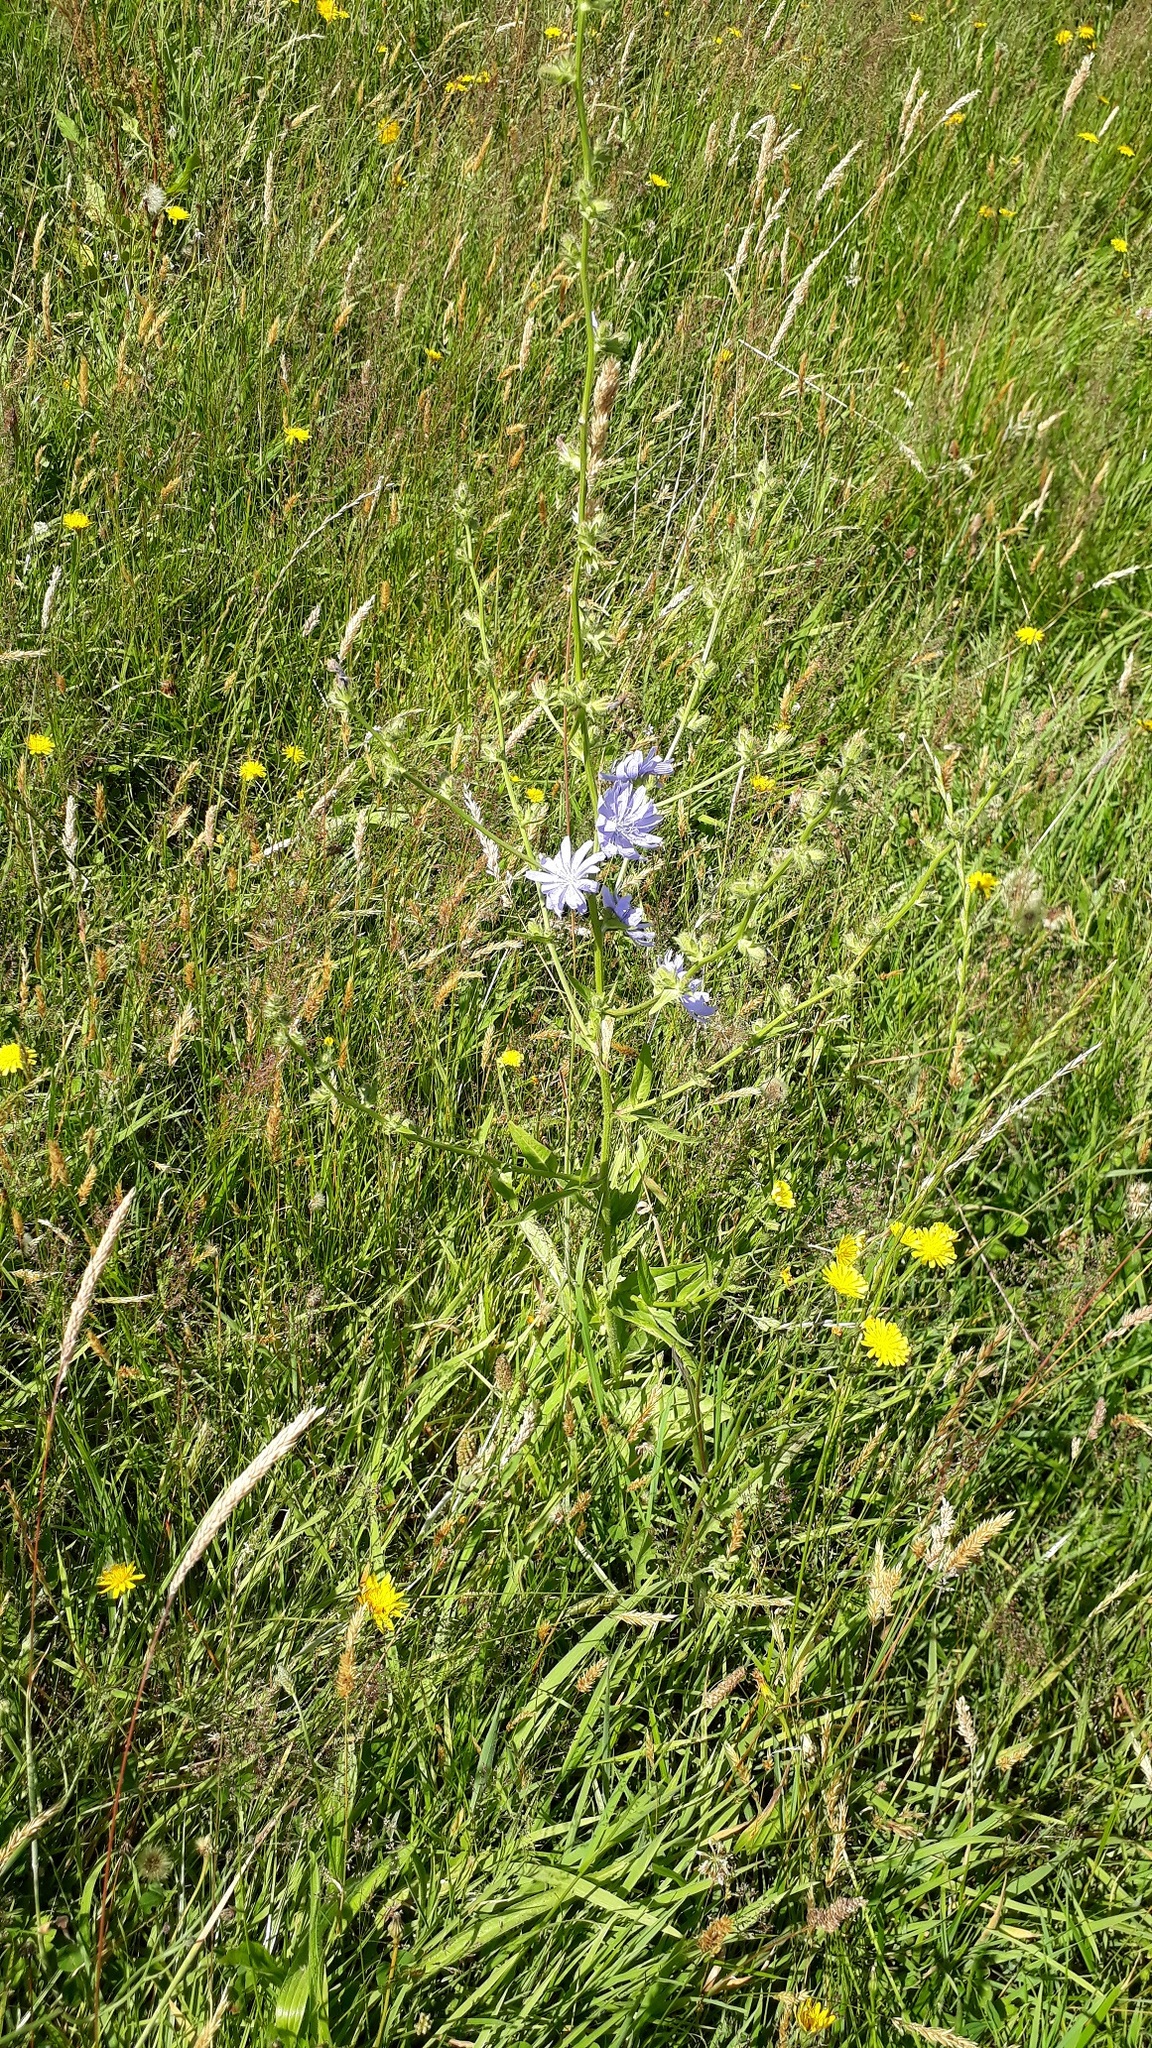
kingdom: Plantae
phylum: Tracheophyta
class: Magnoliopsida
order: Asterales
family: Asteraceae
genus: Cichorium
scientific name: Cichorium intybus
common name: Chicory
